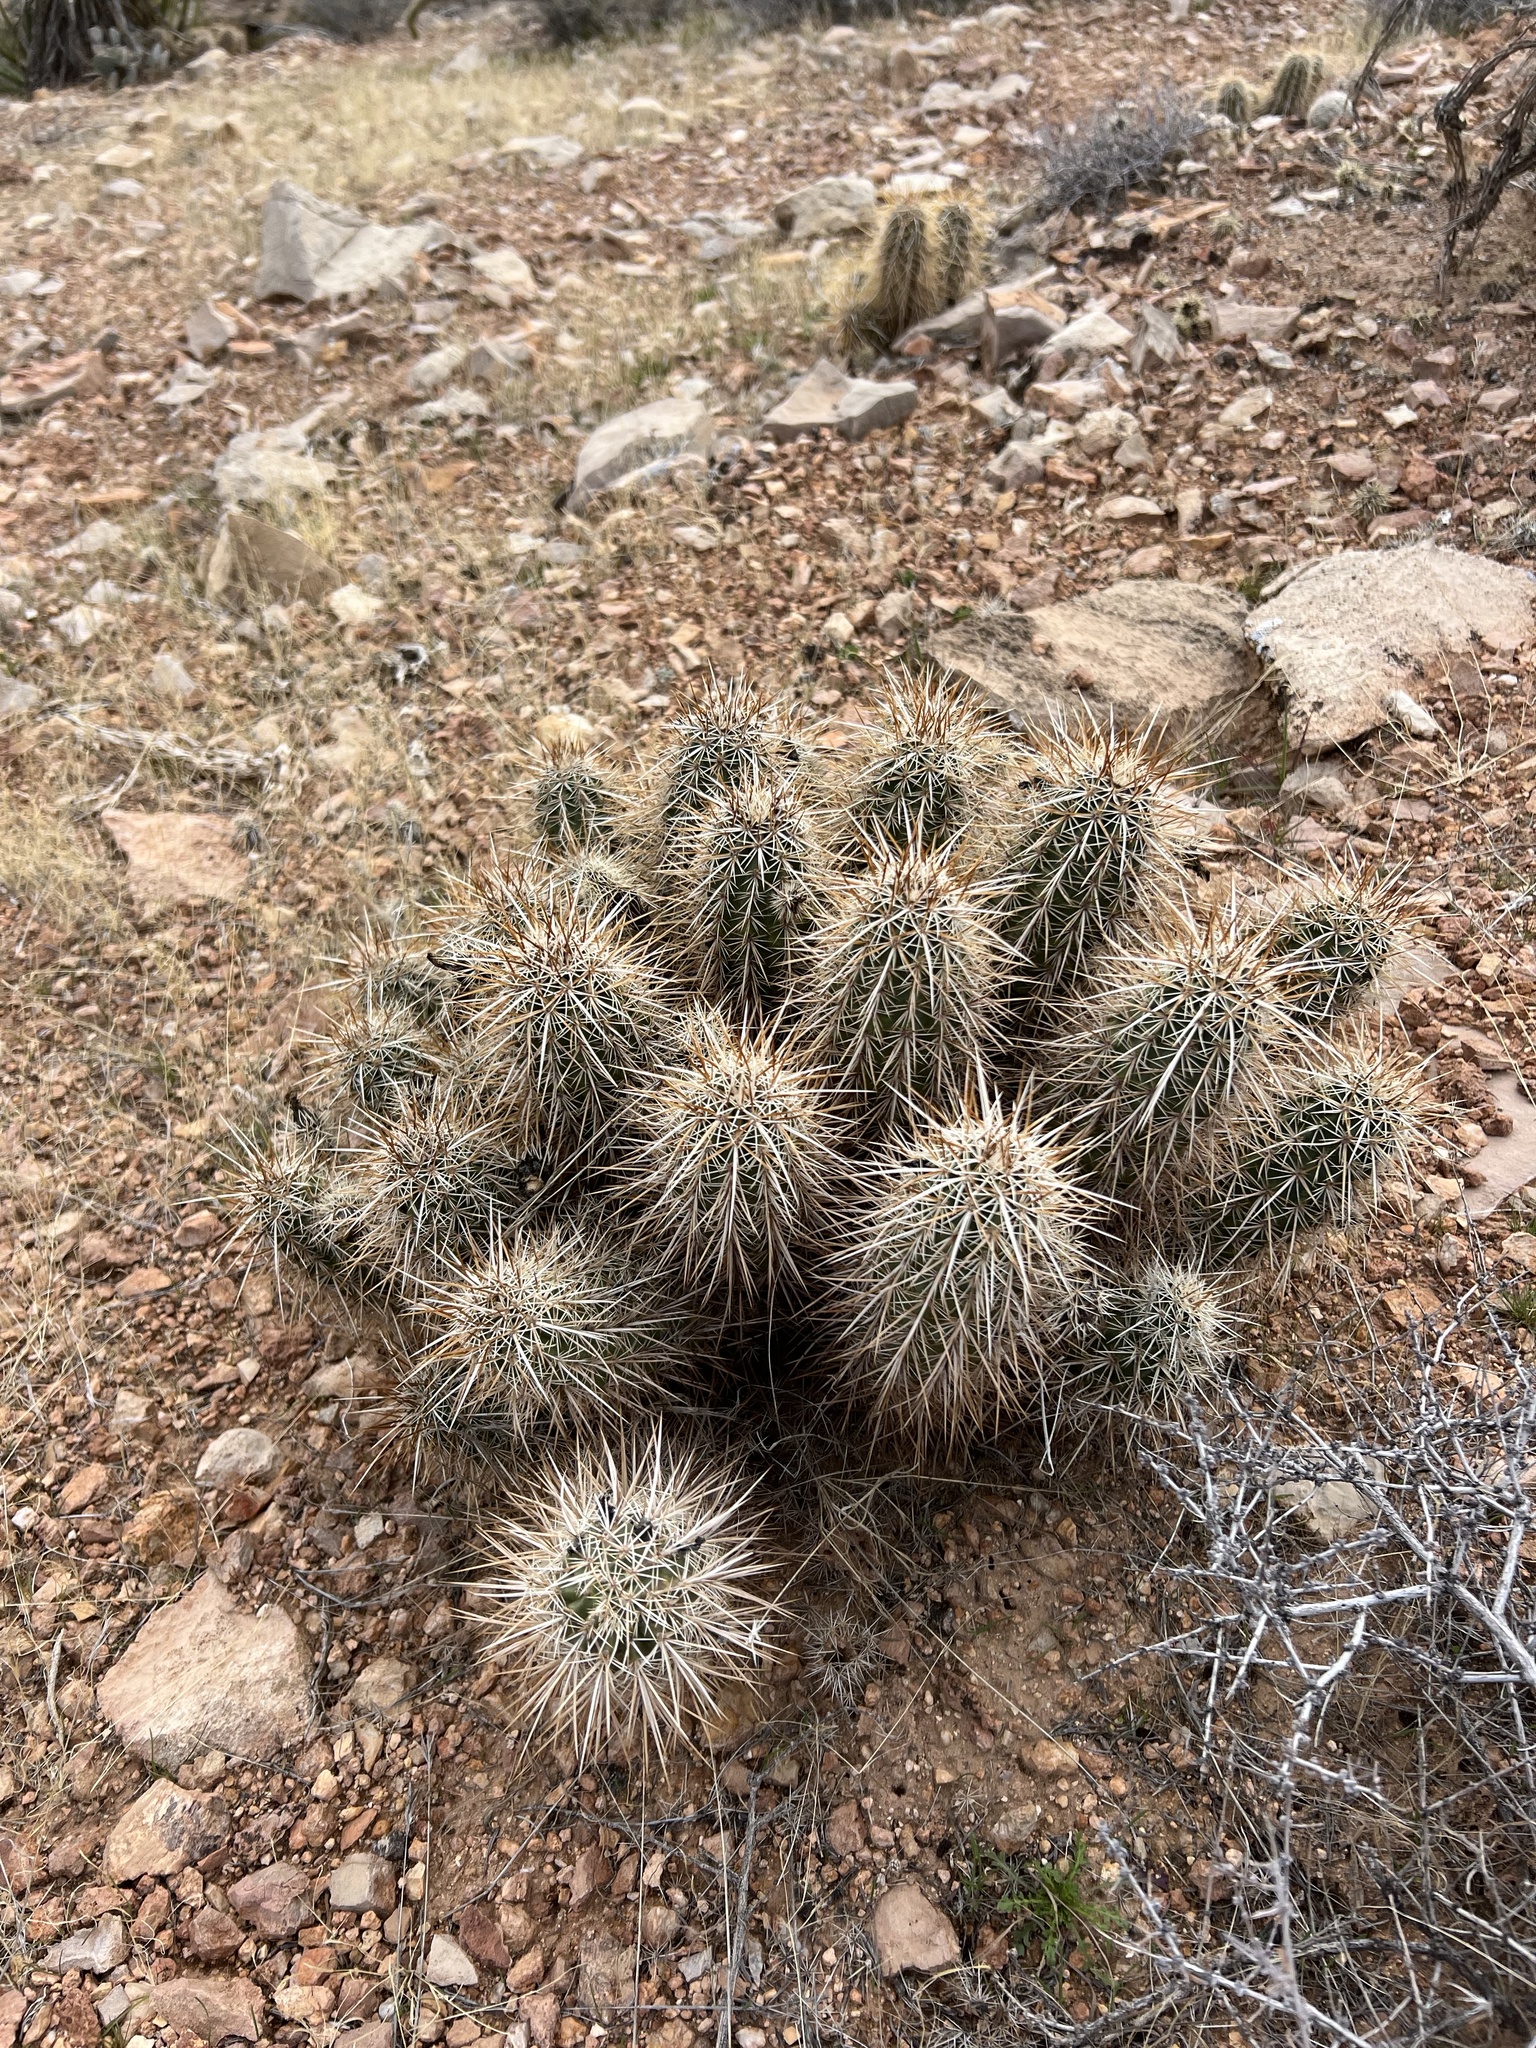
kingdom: Plantae
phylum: Tracheophyta
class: Magnoliopsida
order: Caryophyllales
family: Cactaceae
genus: Echinocereus
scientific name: Echinocereus engelmannii
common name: Engelmann's hedgehog cactus
